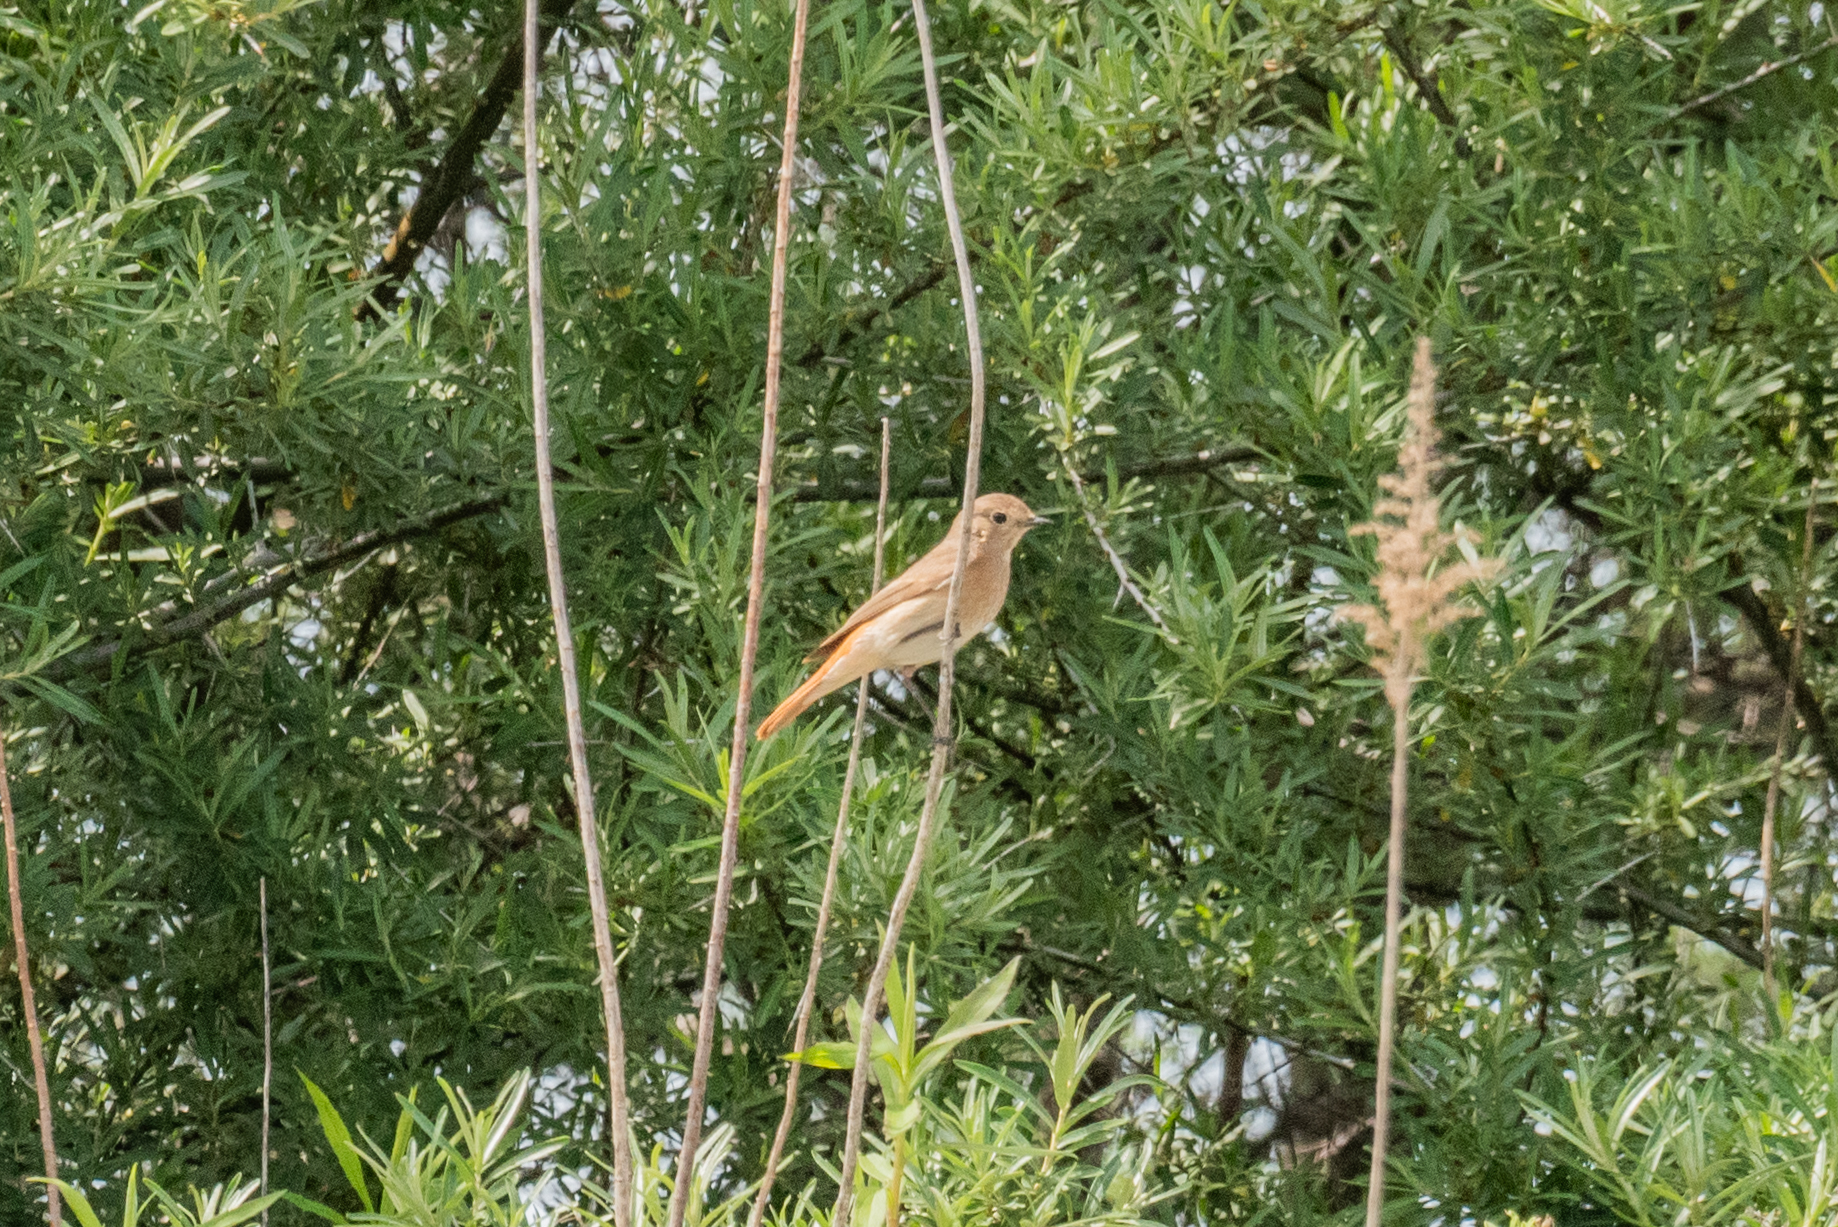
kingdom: Animalia
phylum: Chordata
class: Aves
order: Passeriformes
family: Muscicapidae
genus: Phoenicurus
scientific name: Phoenicurus phoenicurus
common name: Common redstart
